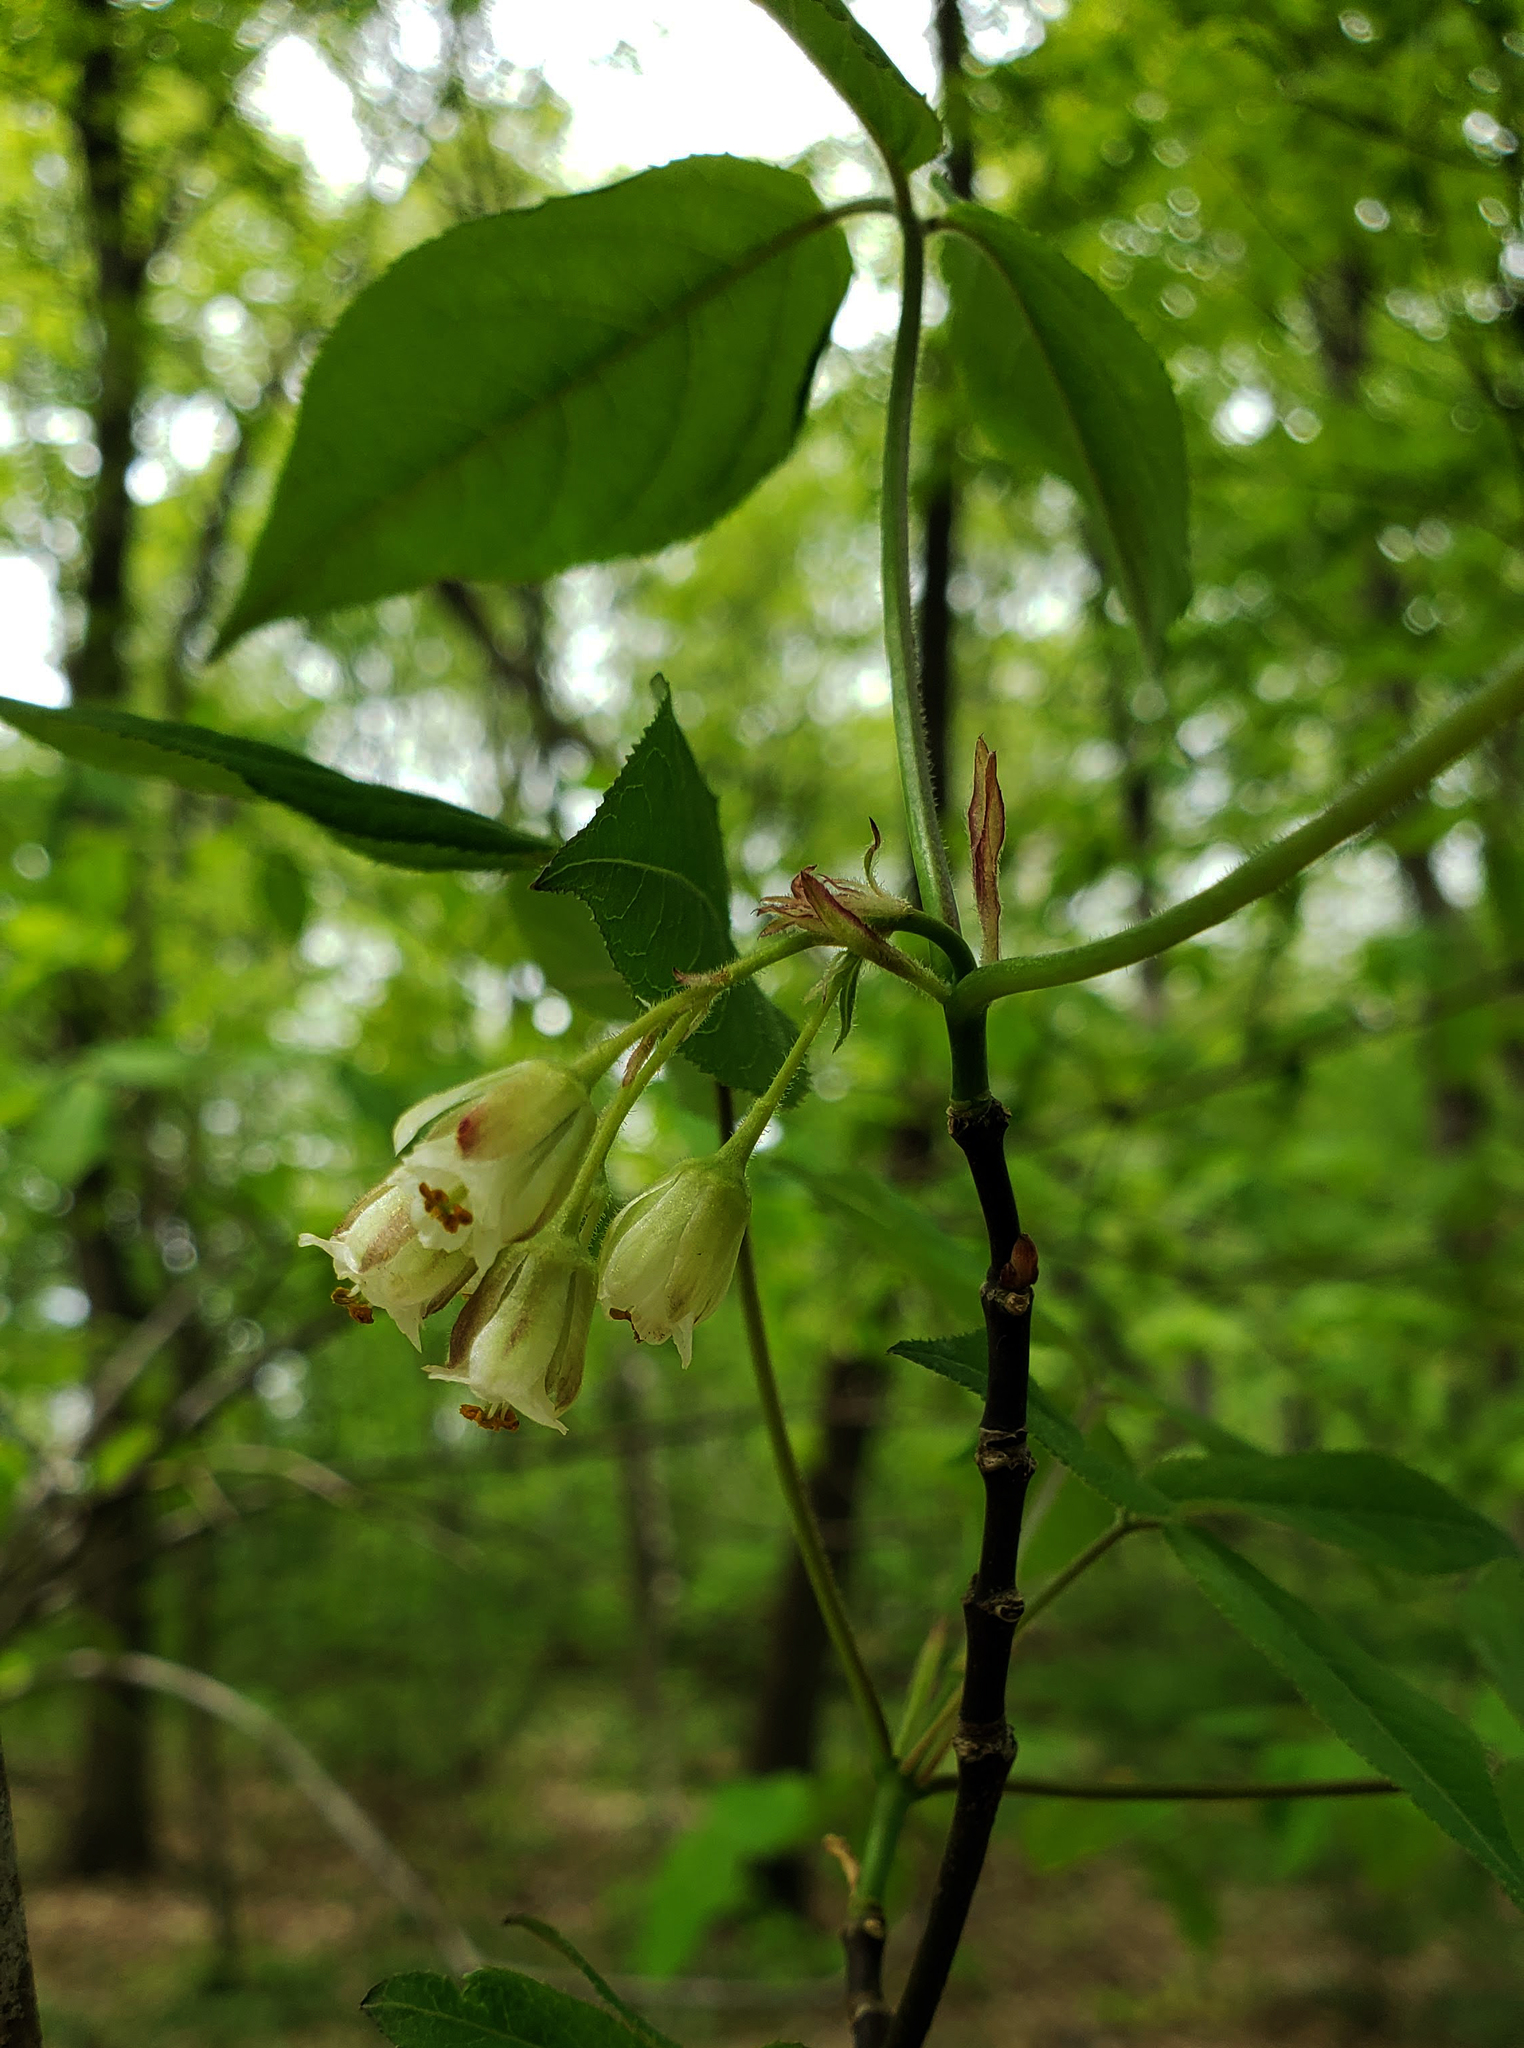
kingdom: Plantae
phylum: Tracheophyta
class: Magnoliopsida
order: Crossosomatales
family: Staphyleaceae
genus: Staphylea
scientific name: Staphylea trifolia
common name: American bladdernut
